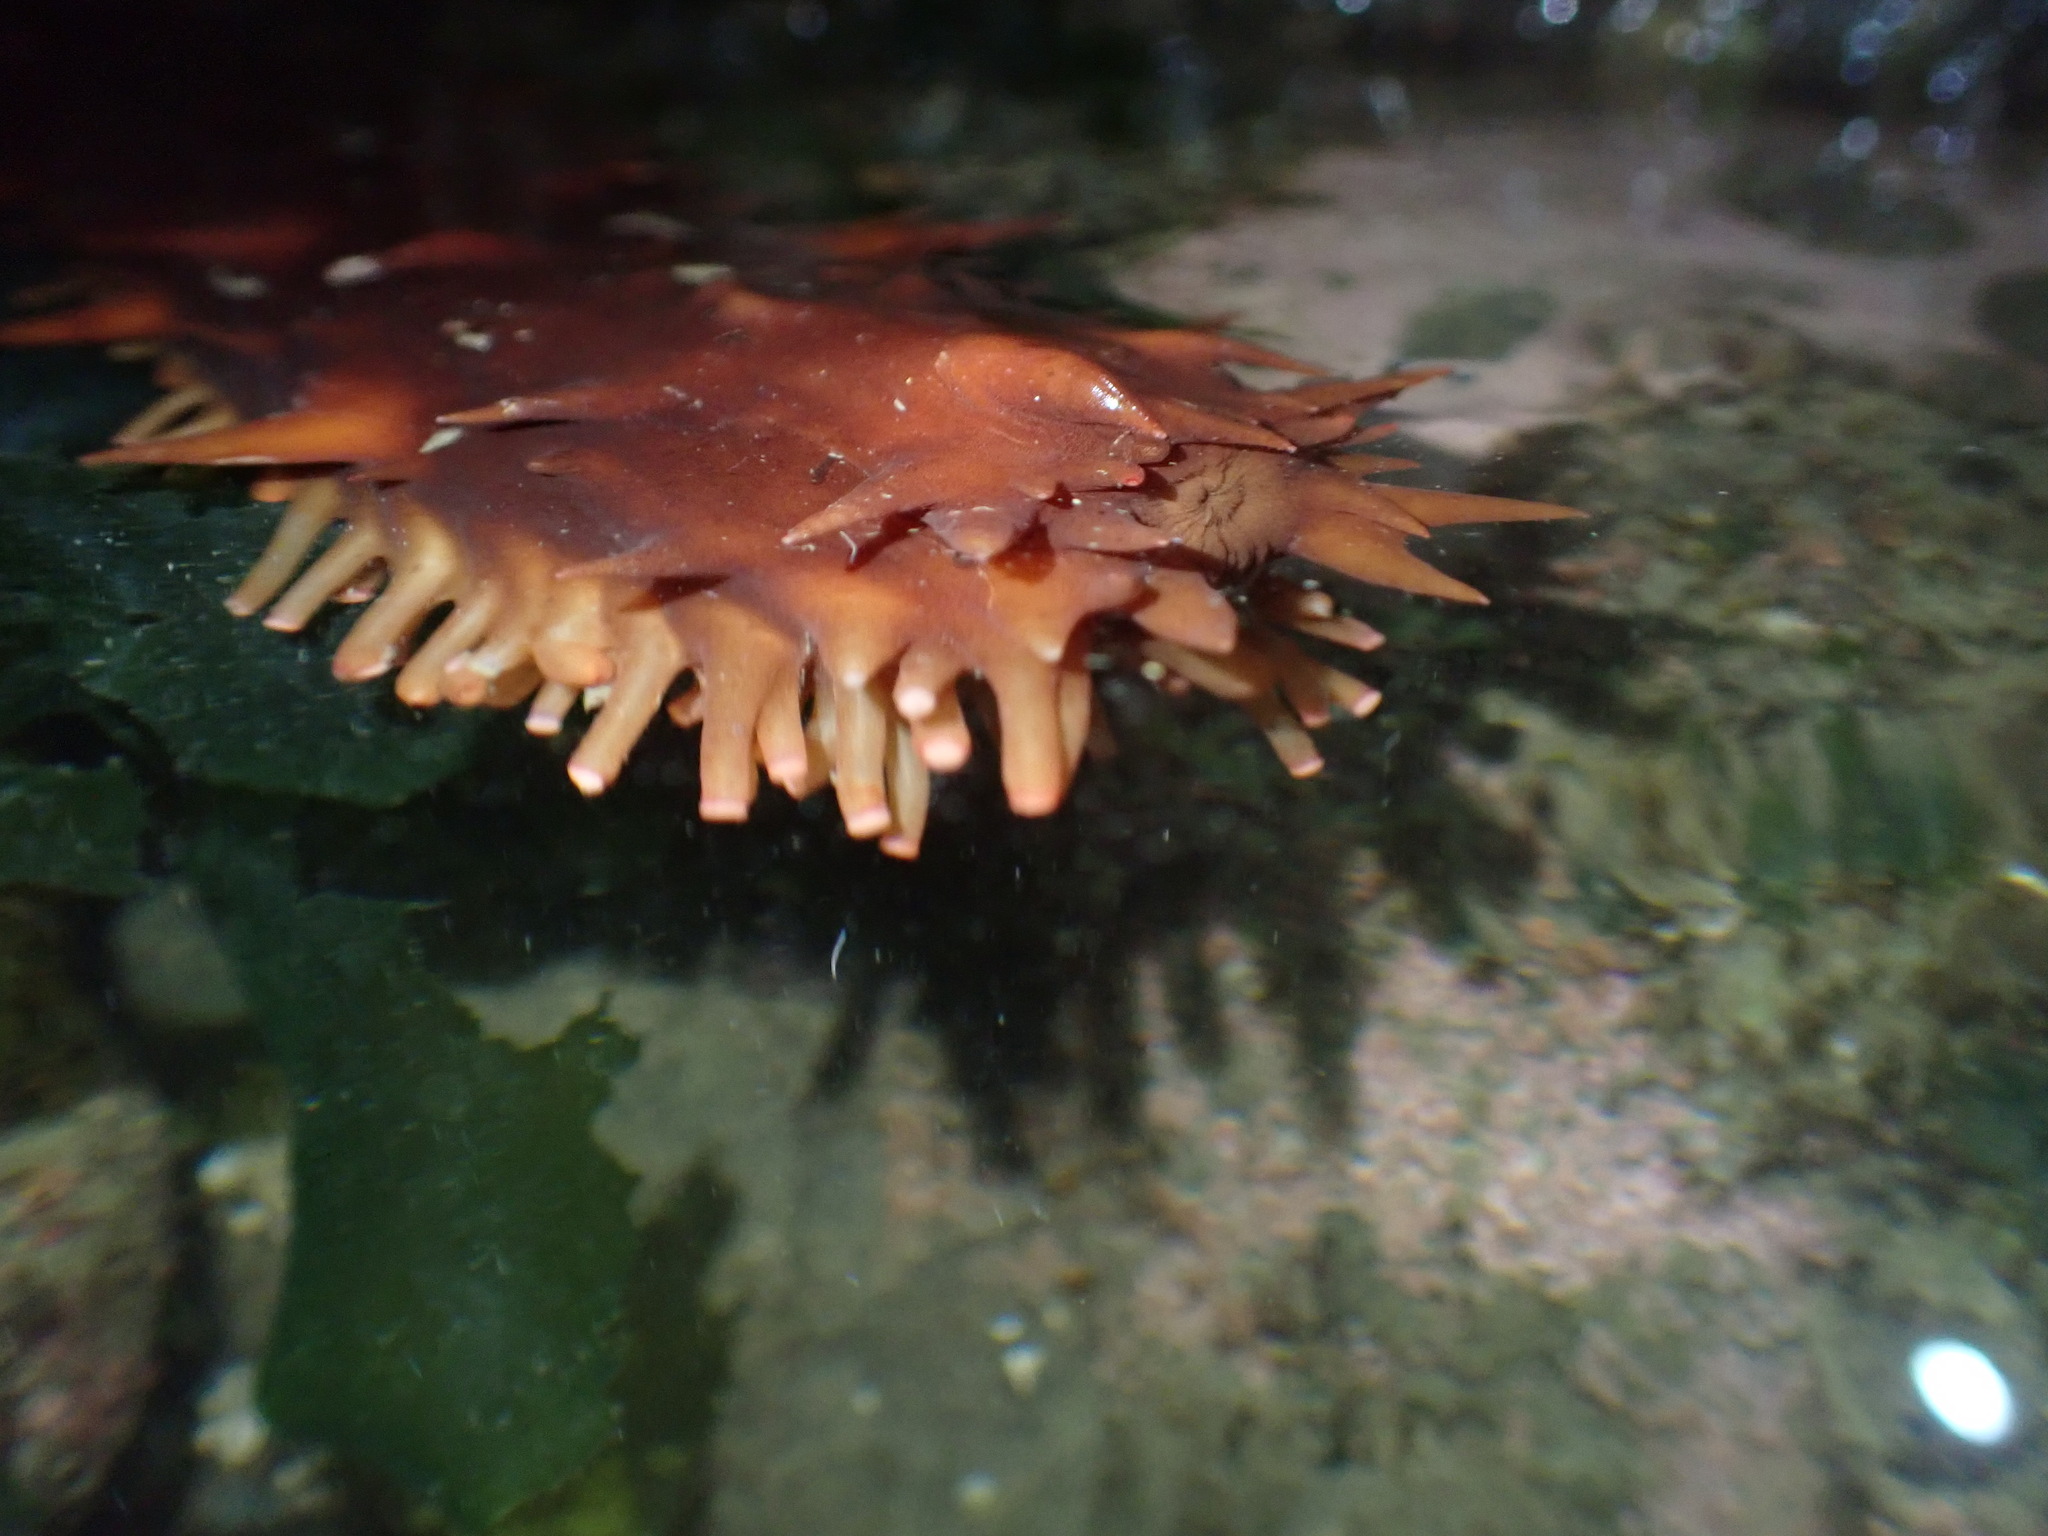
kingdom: Animalia
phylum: Echinodermata
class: Holothuroidea
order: Synallactida
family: Stichopodidae
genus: Apostichopus
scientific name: Apostichopus californicus
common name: California sea cucumber
